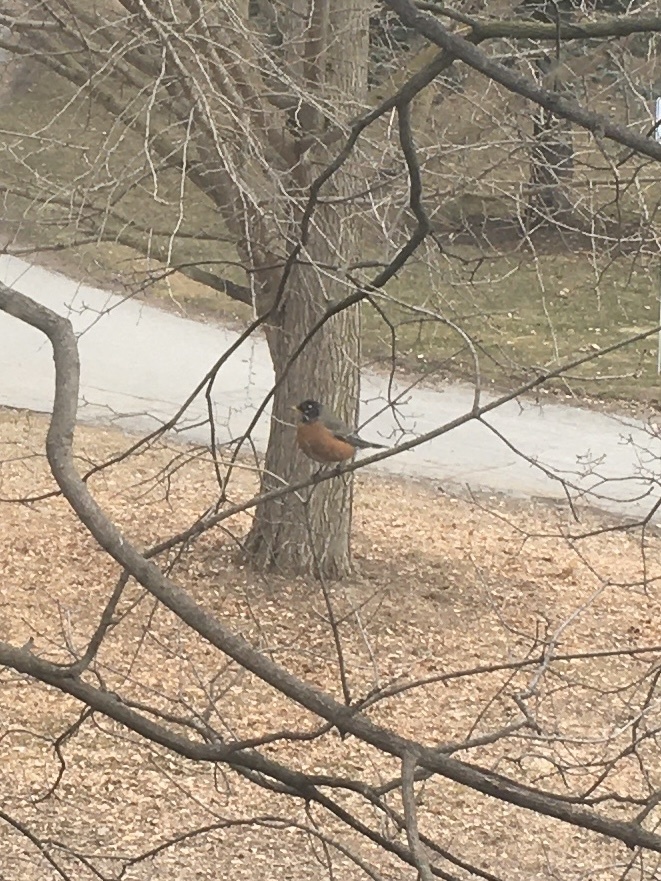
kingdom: Animalia
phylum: Chordata
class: Aves
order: Passeriformes
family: Turdidae
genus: Turdus
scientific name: Turdus migratorius
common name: American robin
